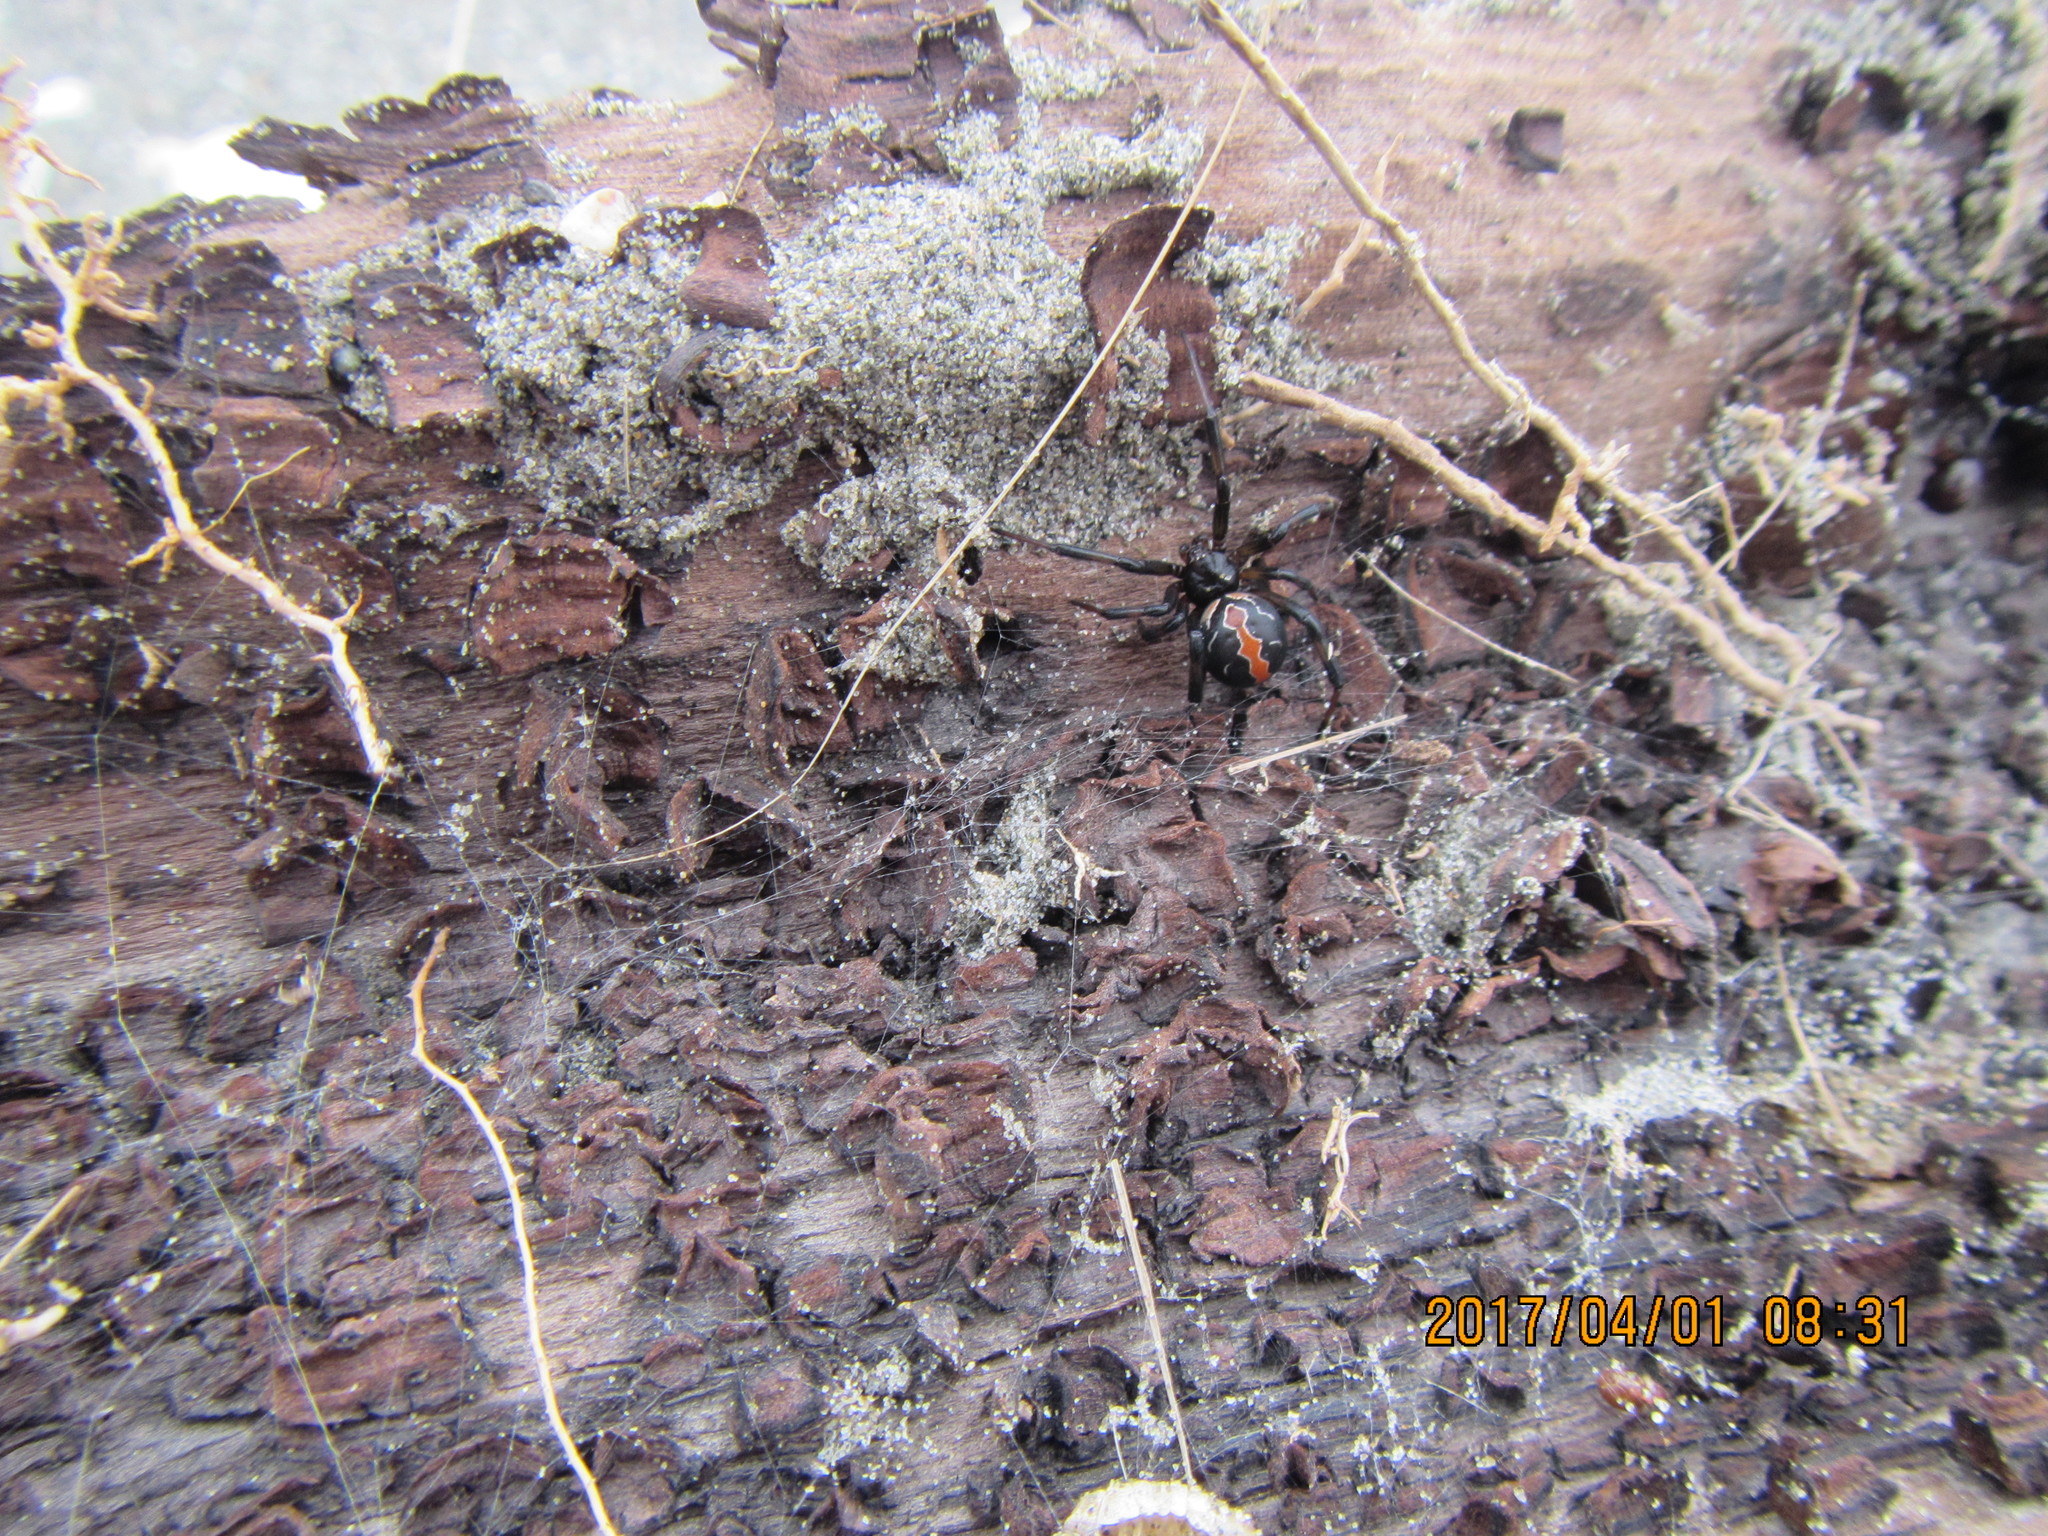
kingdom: Animalia
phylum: Arthropoda
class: Arachnida
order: Araneae
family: Theridiidae
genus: Latrodectus
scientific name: Latrodectus katipo
